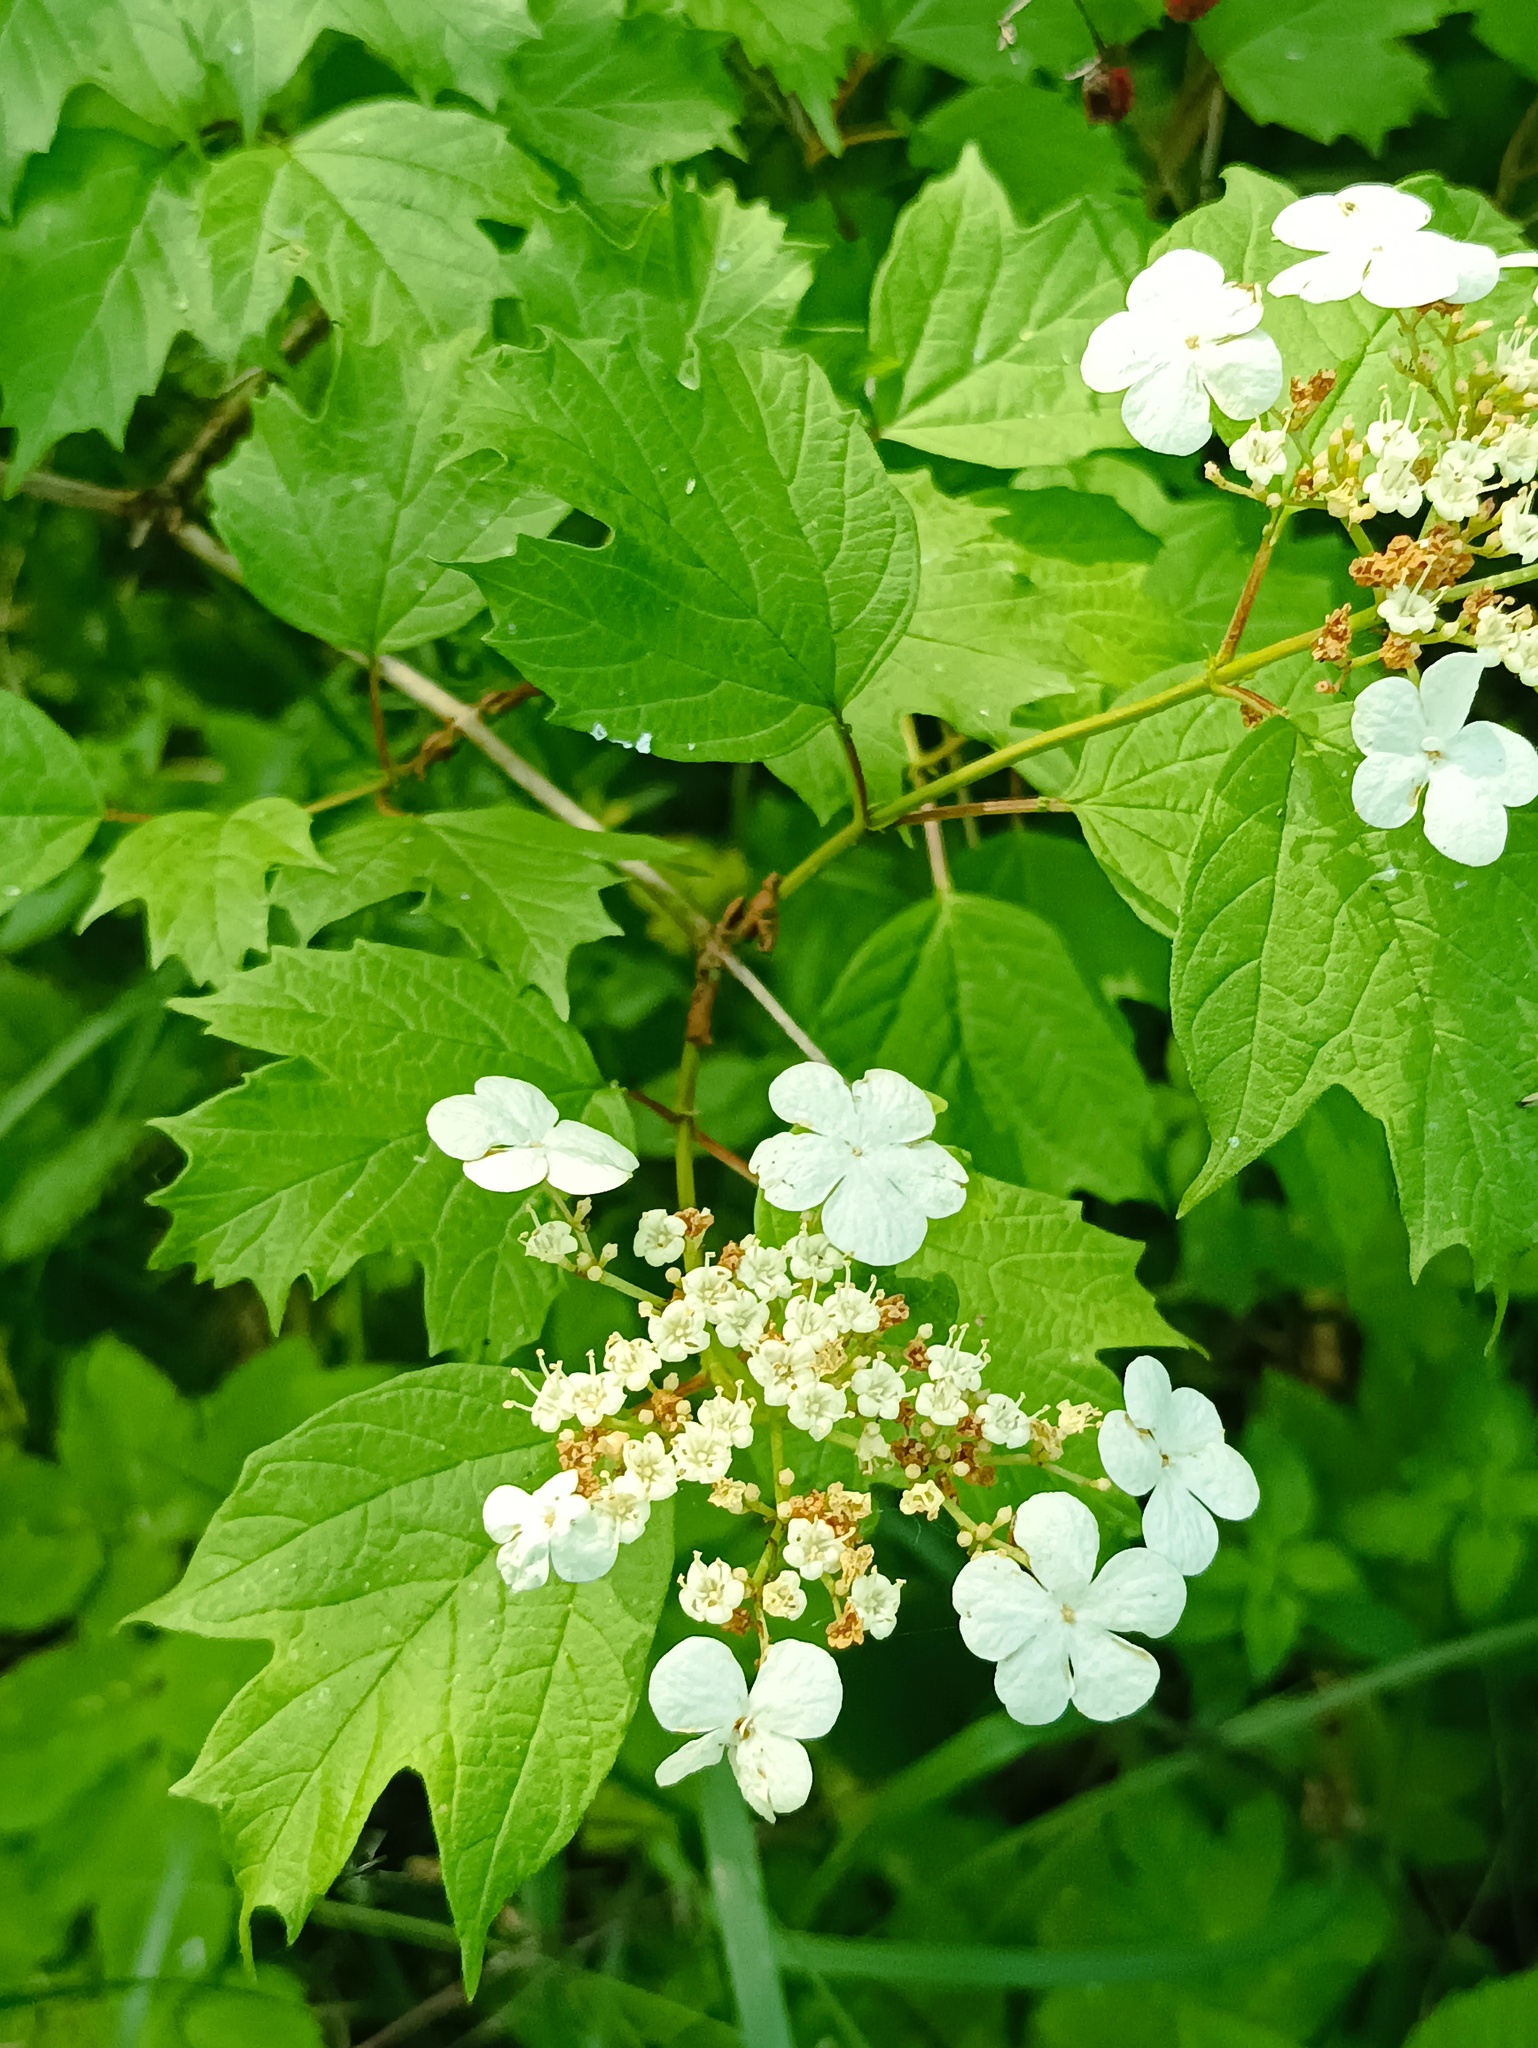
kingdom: Plantae
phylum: Tracheophyta
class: Magnoliopsida
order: Dipsacales
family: Viburnaceae
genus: Viburnum
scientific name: Viburnum opulus
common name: Guelder-rose
